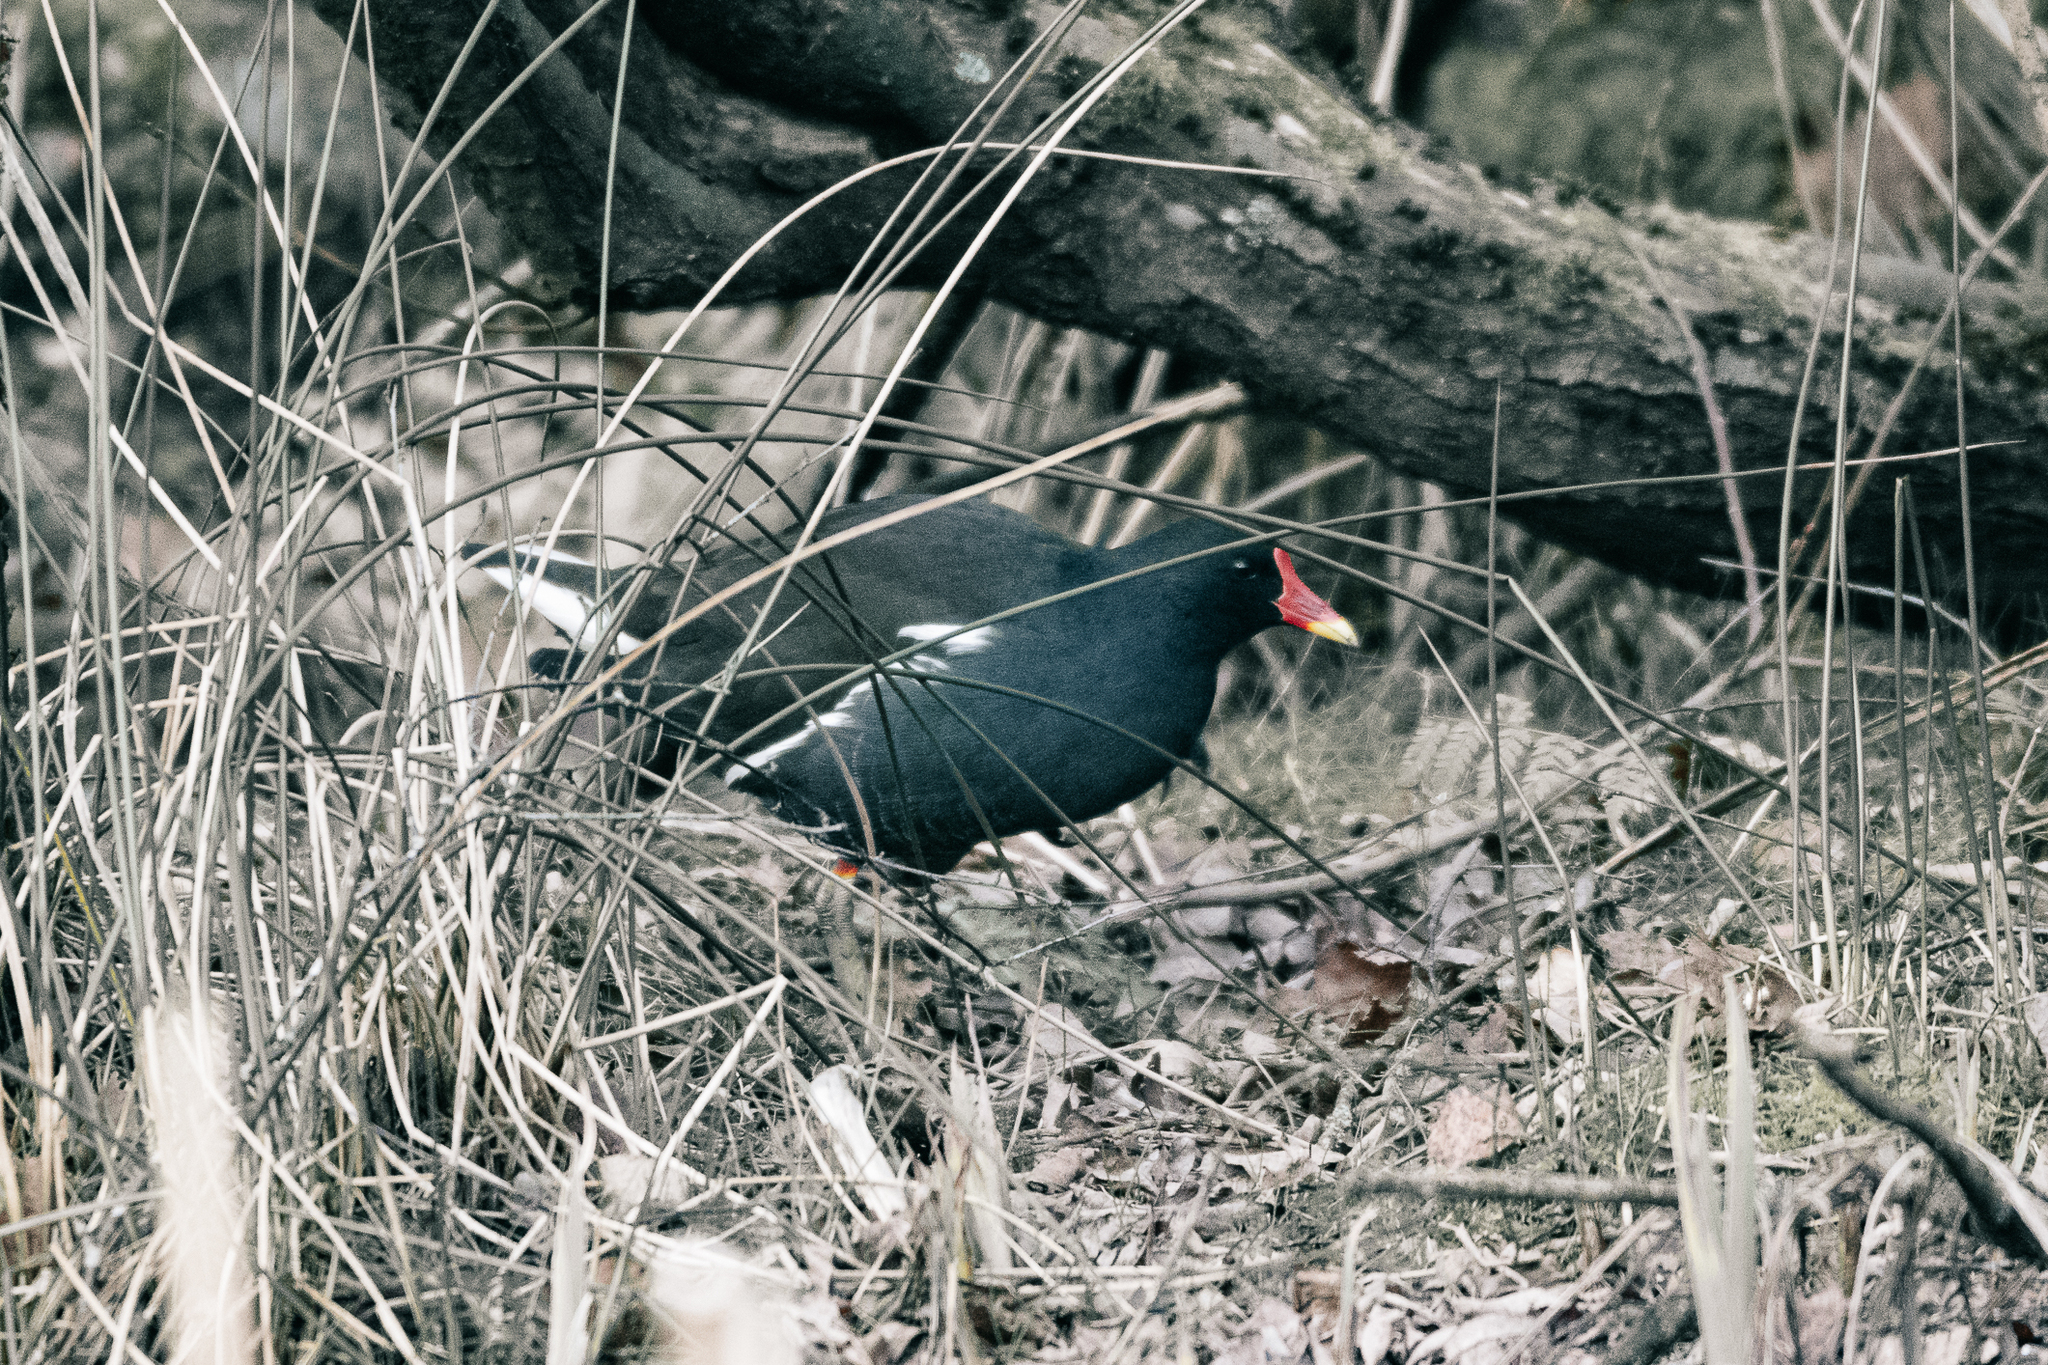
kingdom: Animalia
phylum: Chordata
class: Aves
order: Gruiformes
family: Rallidae
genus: Gallinula
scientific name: Gallinula chloropus
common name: Common moorhen
